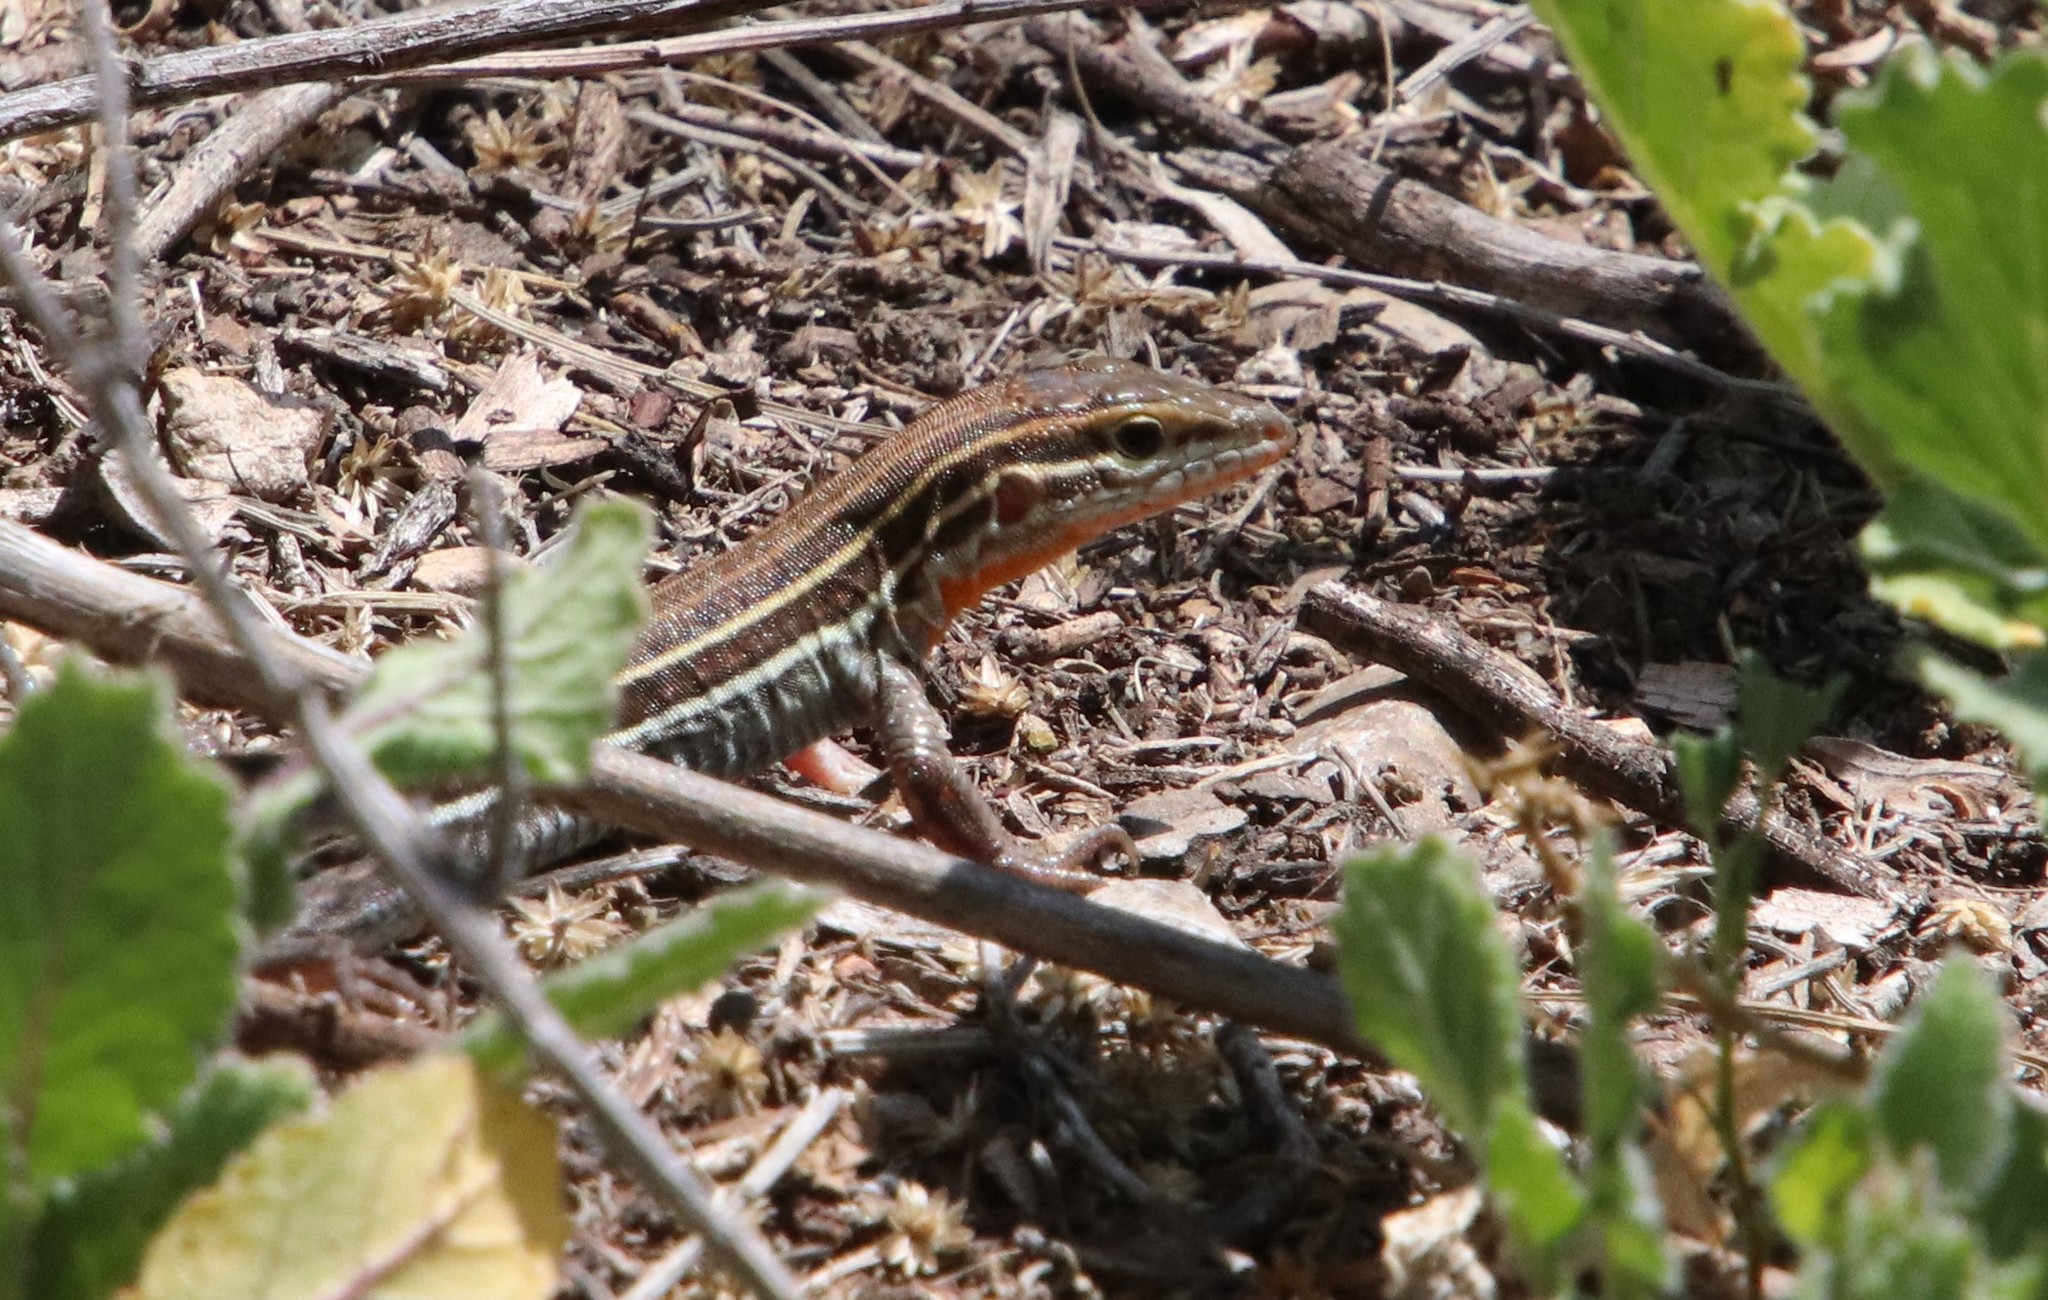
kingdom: Animalia
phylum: Chordata
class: Squamata
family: Teiidae
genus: Aspidoscelis
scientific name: Aspidoscelis hyperythrus
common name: Orange-throated race-runner
